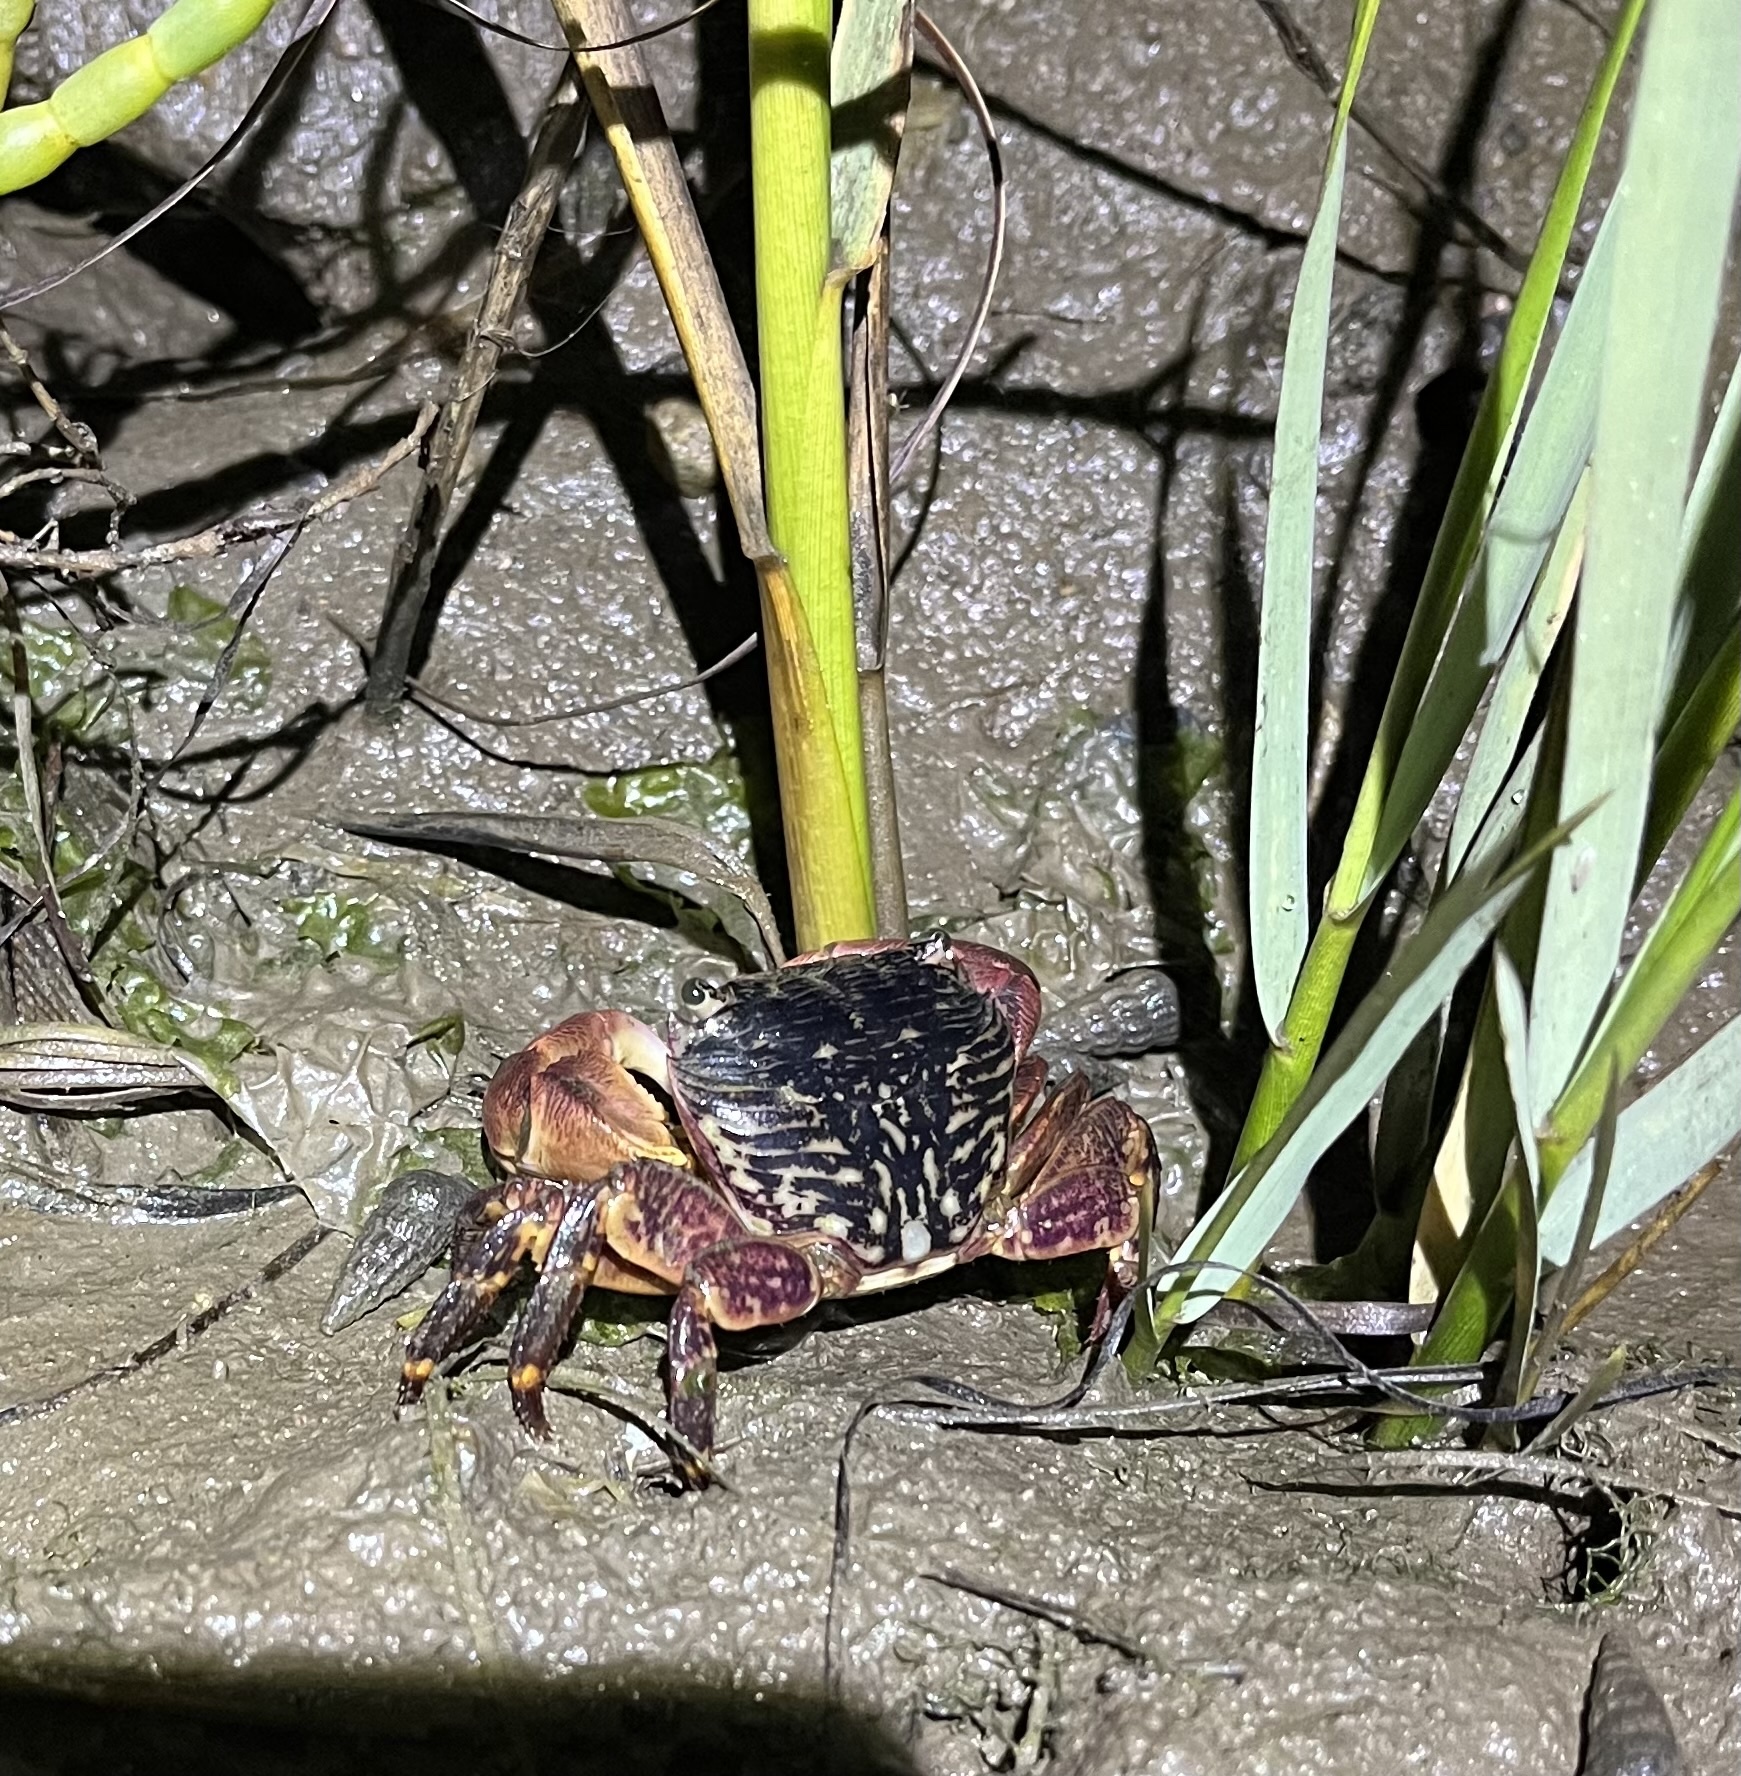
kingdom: Animalia
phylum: Arthropoda
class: Malacostraca
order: Decapoda
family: Grapsidae
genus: Pachygrapsus
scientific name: Pachygrapsus crassipes
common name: Striped shore crab
